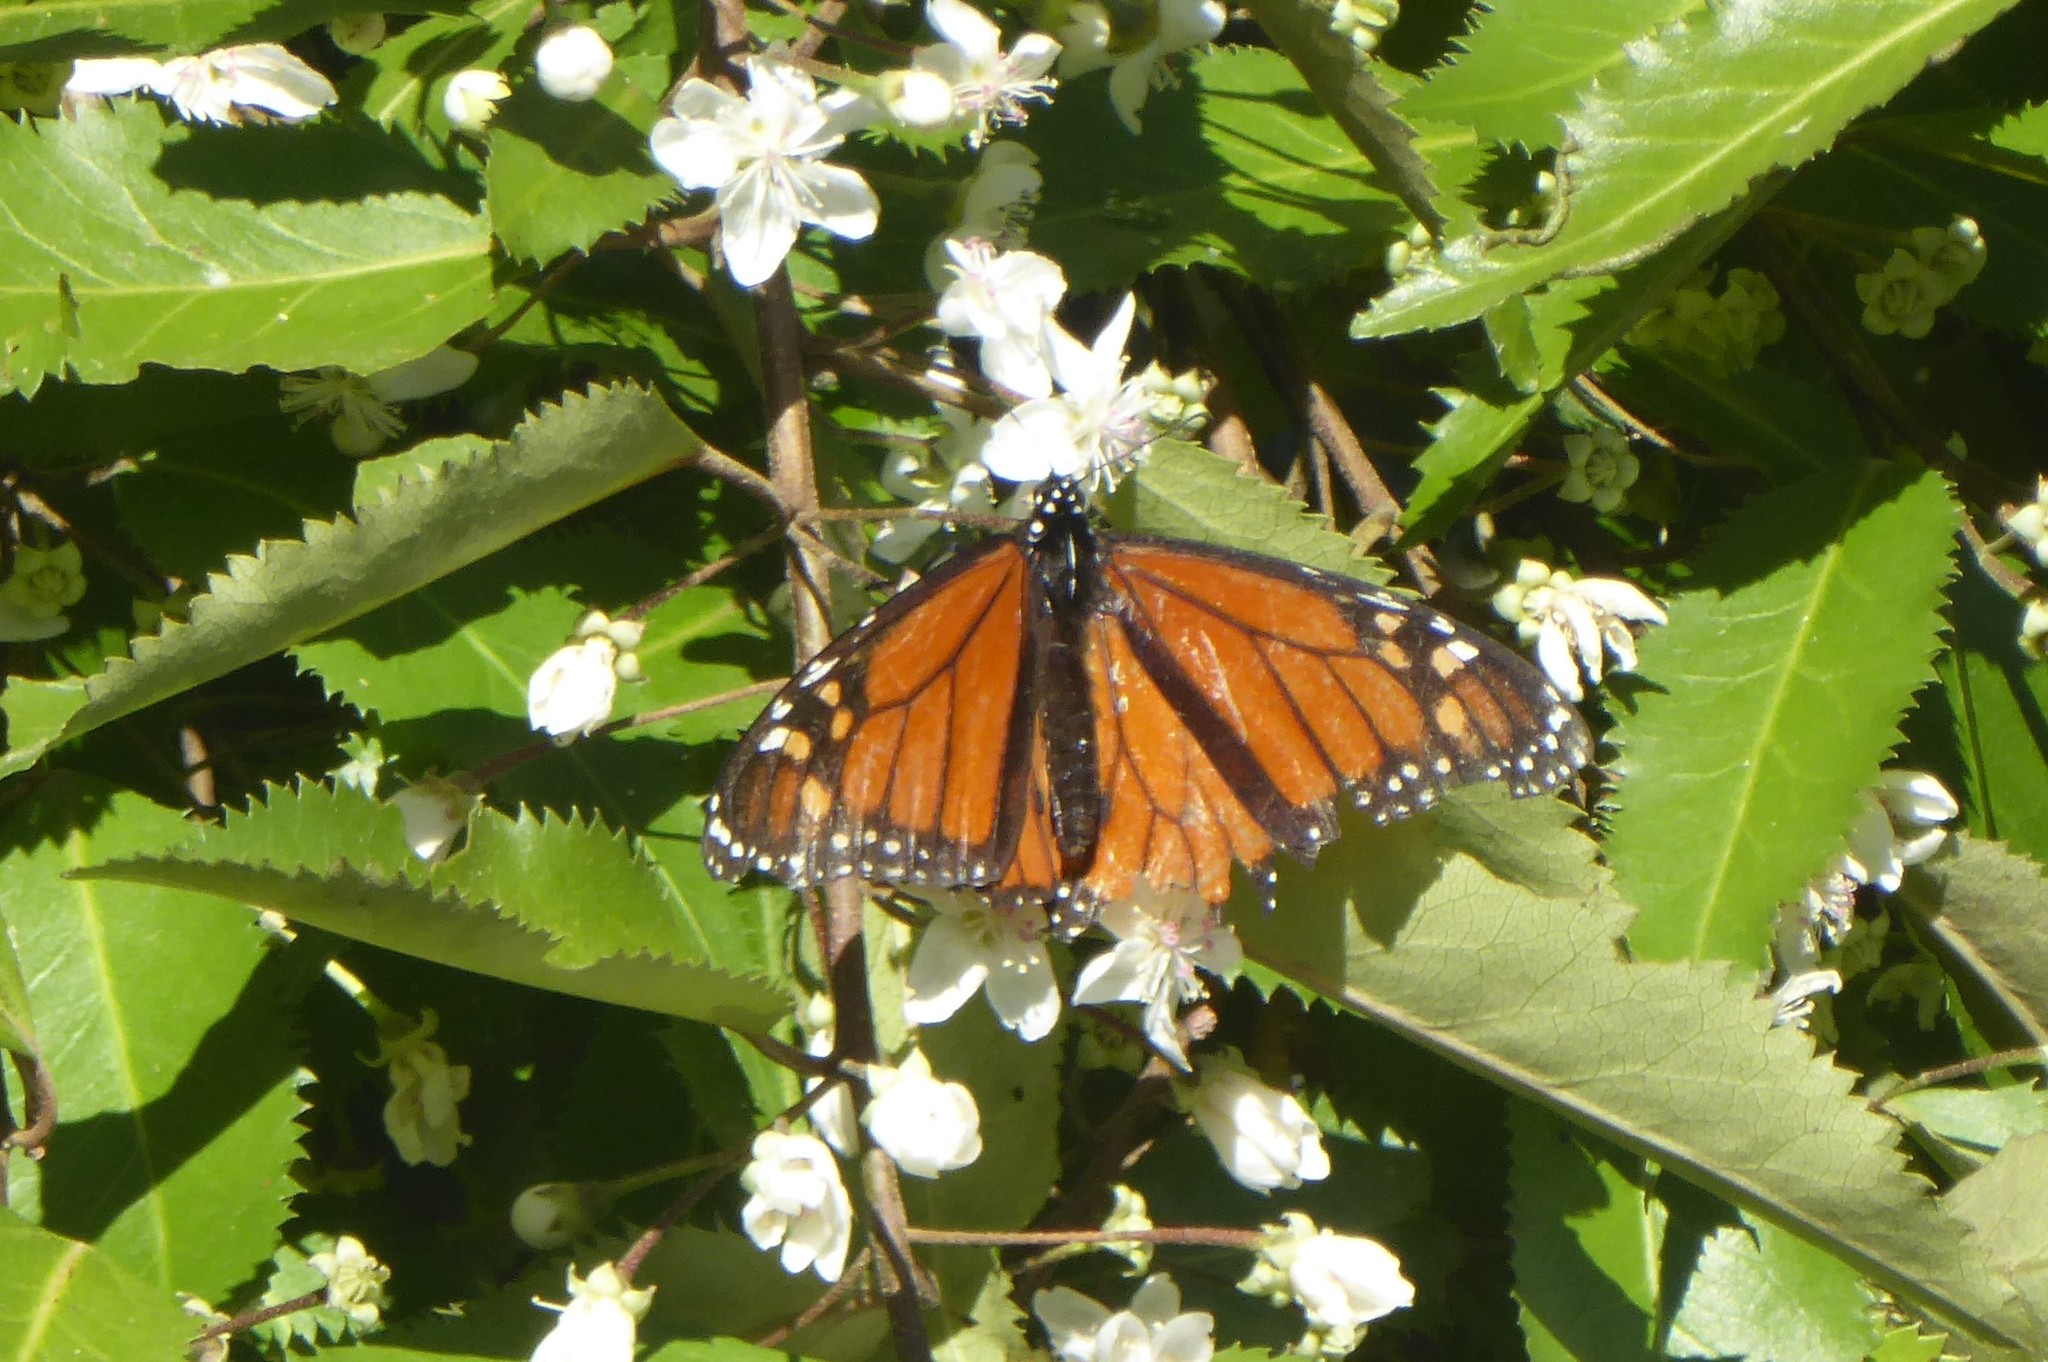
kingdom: Animalia
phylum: Arthropoda
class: Insecta
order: Lepidoptera
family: Nymphalidae
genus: Danaus
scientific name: Danaus plexippus
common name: Monarch
